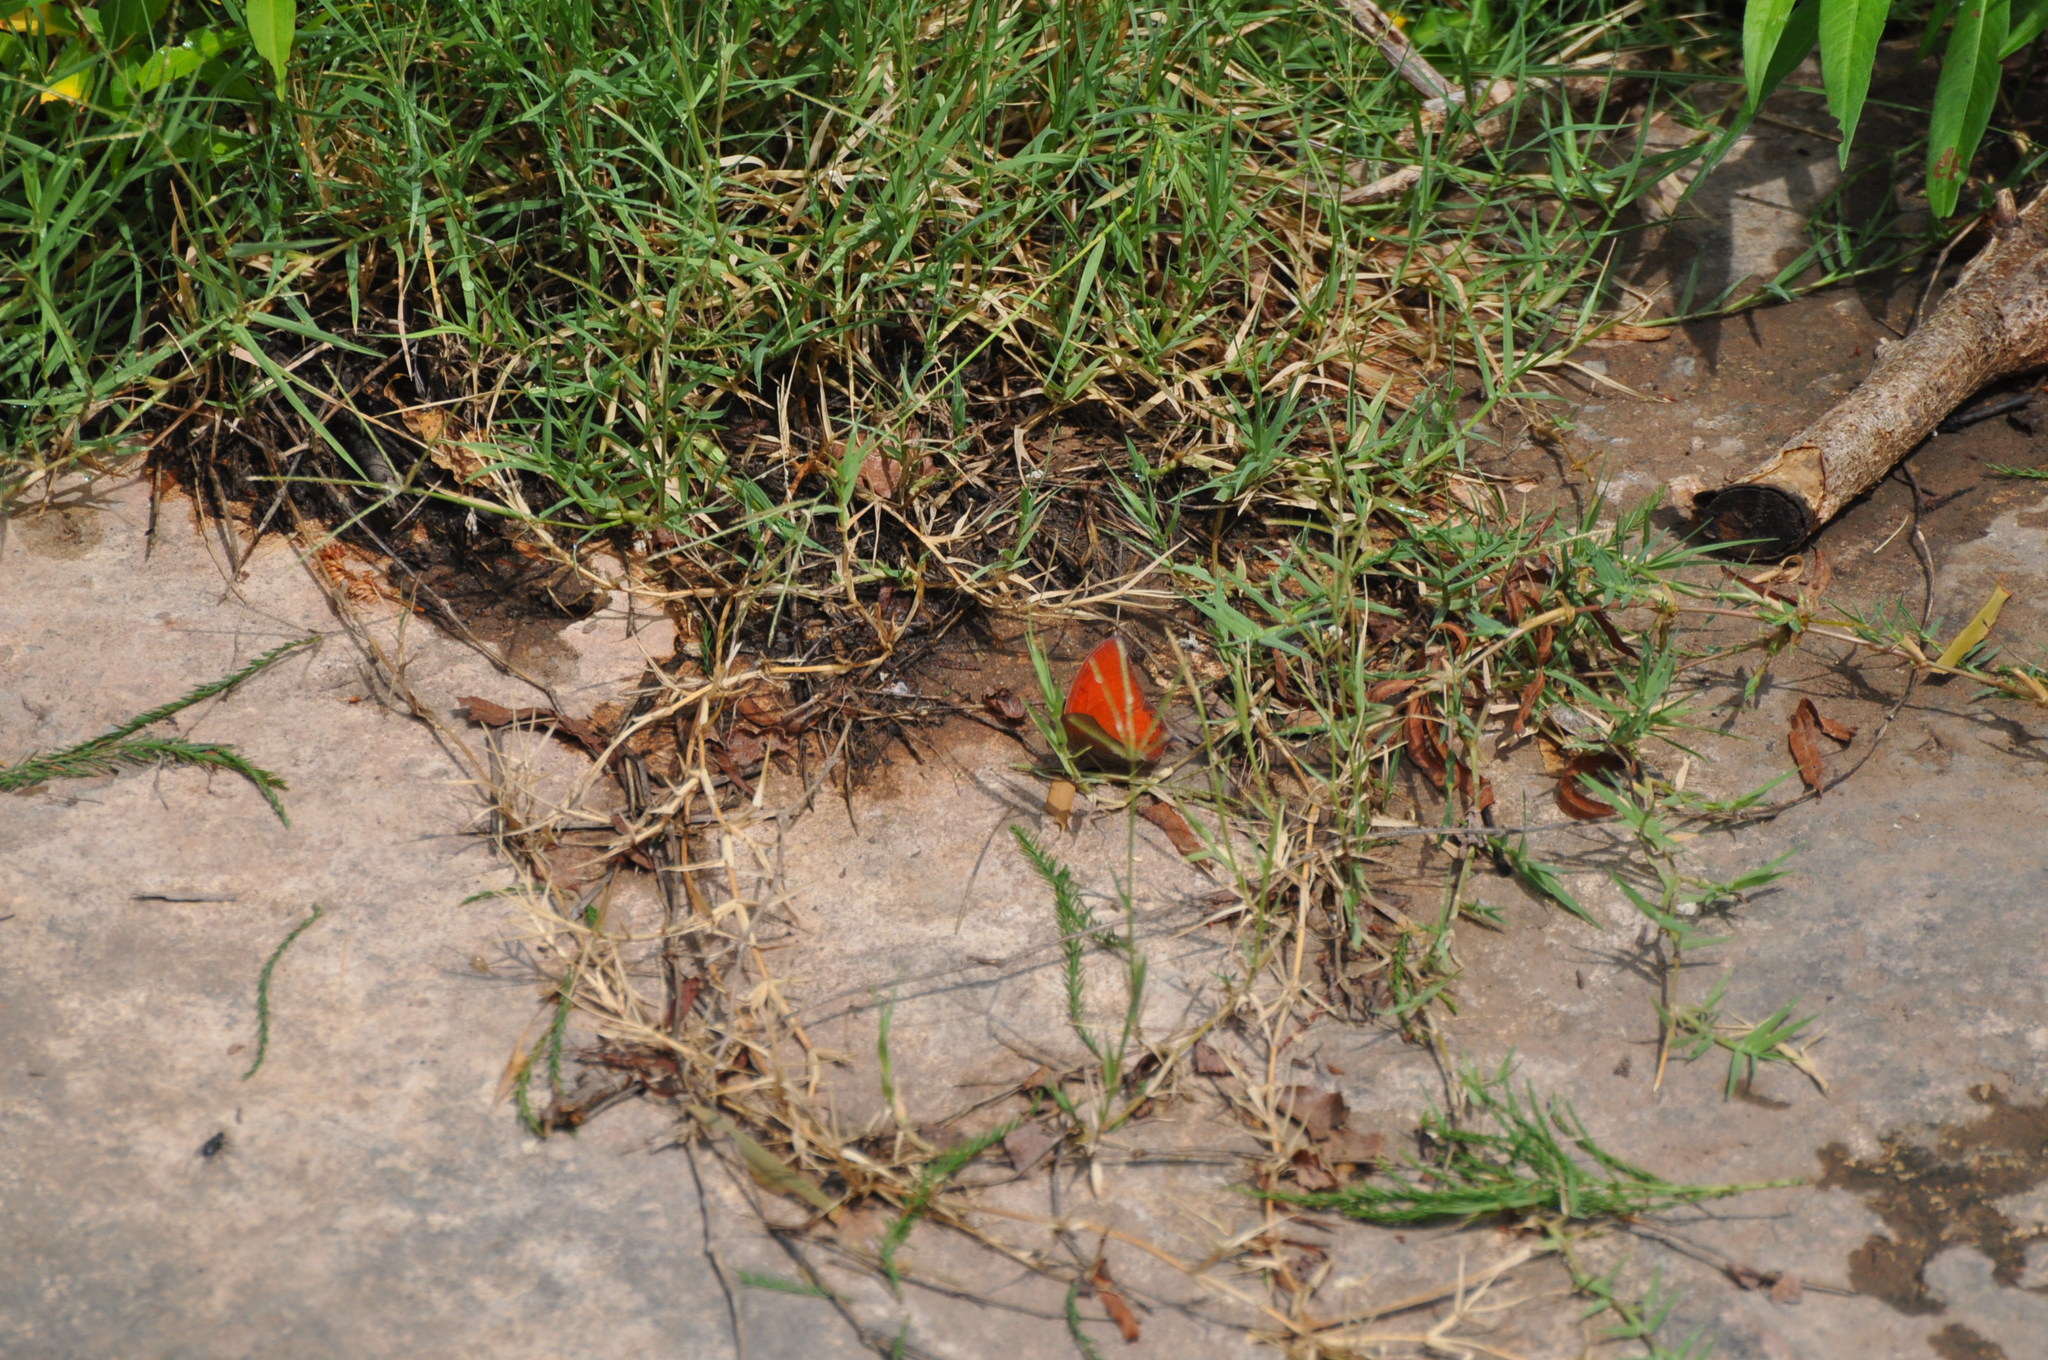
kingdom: Animalia
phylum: Arthropoda
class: Insecta
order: Lepidoptera
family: Nymphalidae
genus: Anaea
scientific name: Anaea andria
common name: Goatweed leafwing
